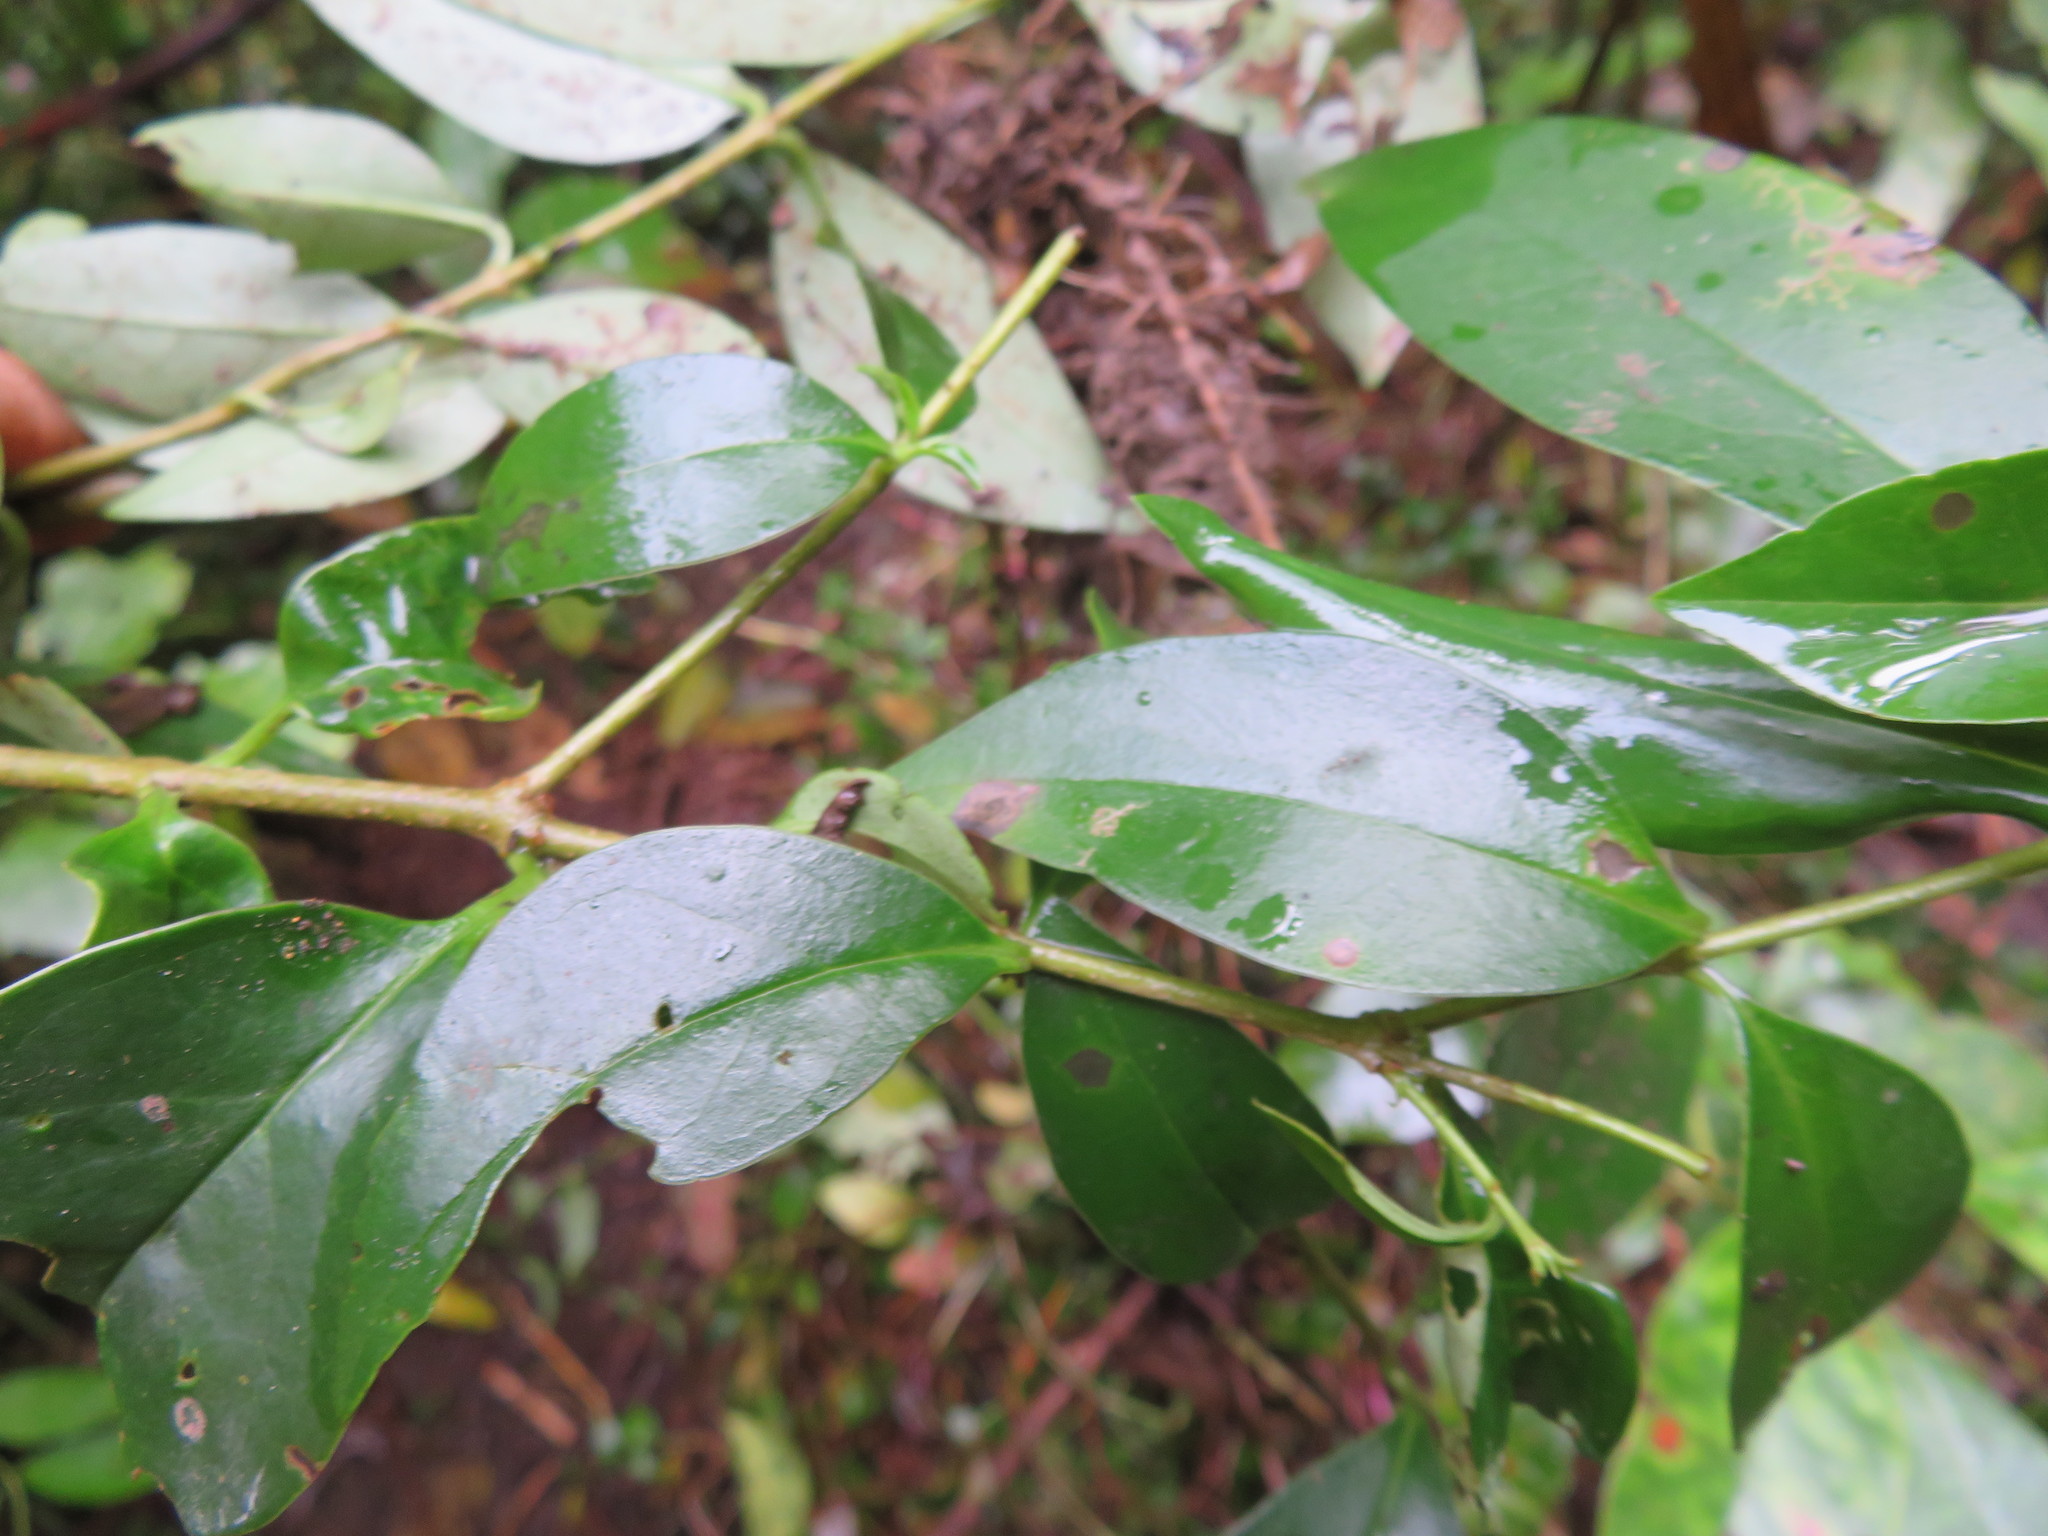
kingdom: Plantae
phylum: Tracheophyta
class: Magnoliopsida
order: Lamiales
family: Oleaceae
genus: Ligustrum
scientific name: Ligustrum lucidum
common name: Glossy privet
